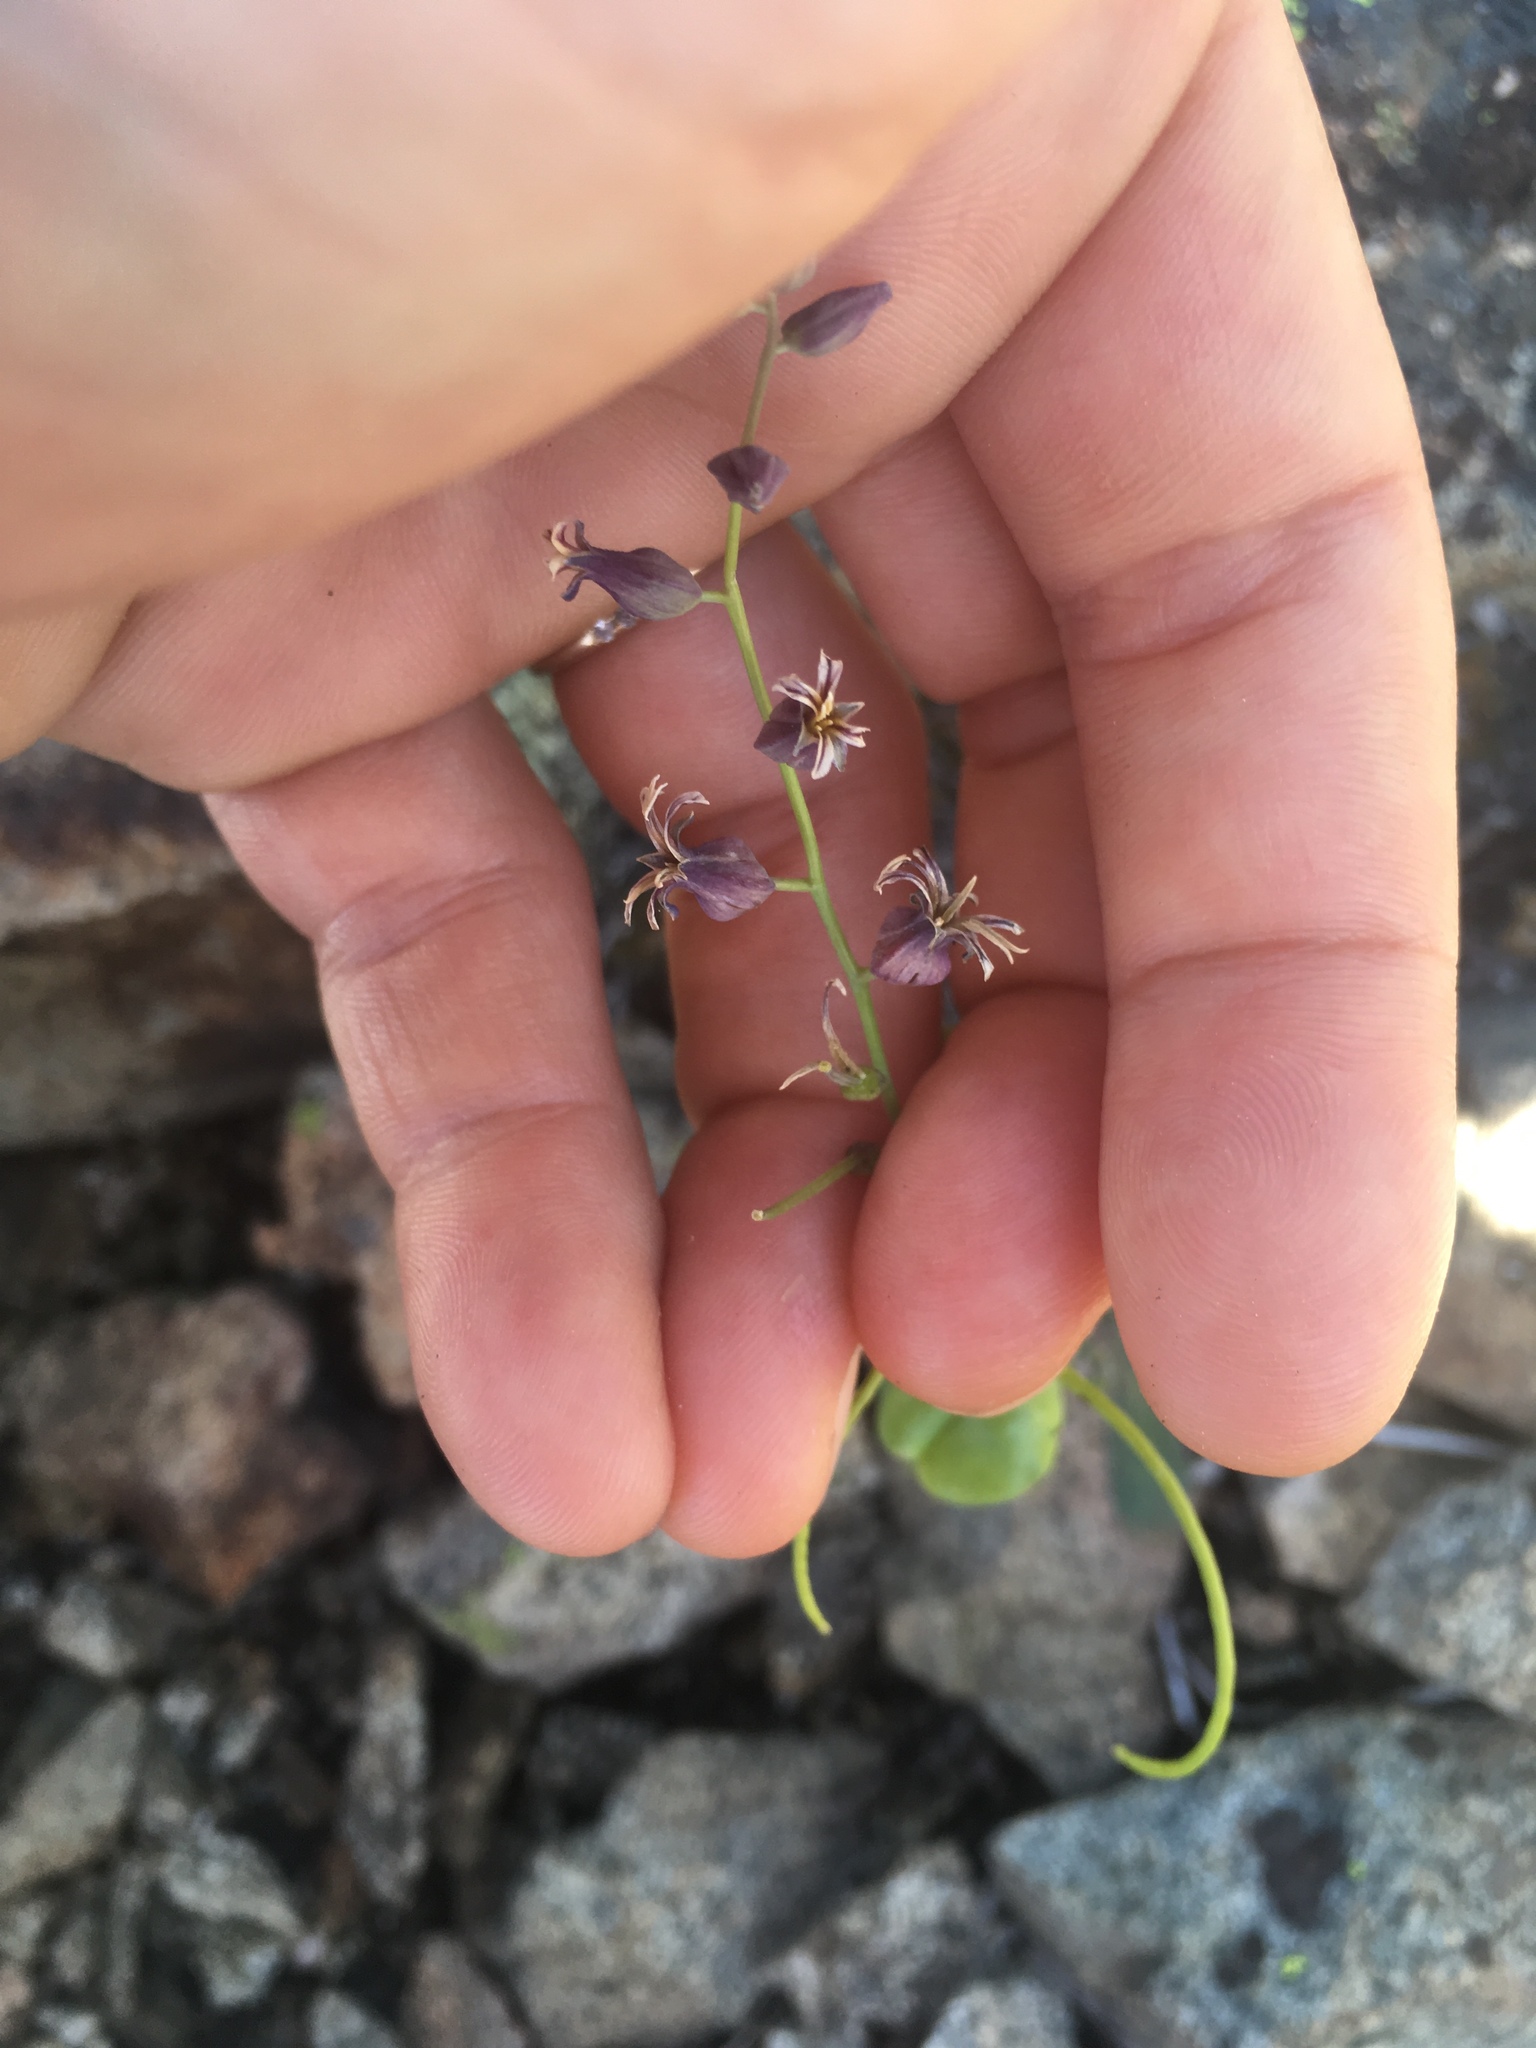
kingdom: Plantae
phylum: Tracheophyta
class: Magnoliopsida
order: Brassicales
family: Brassicaceae
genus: Streptanthus
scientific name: Streptanthus tortuosus
